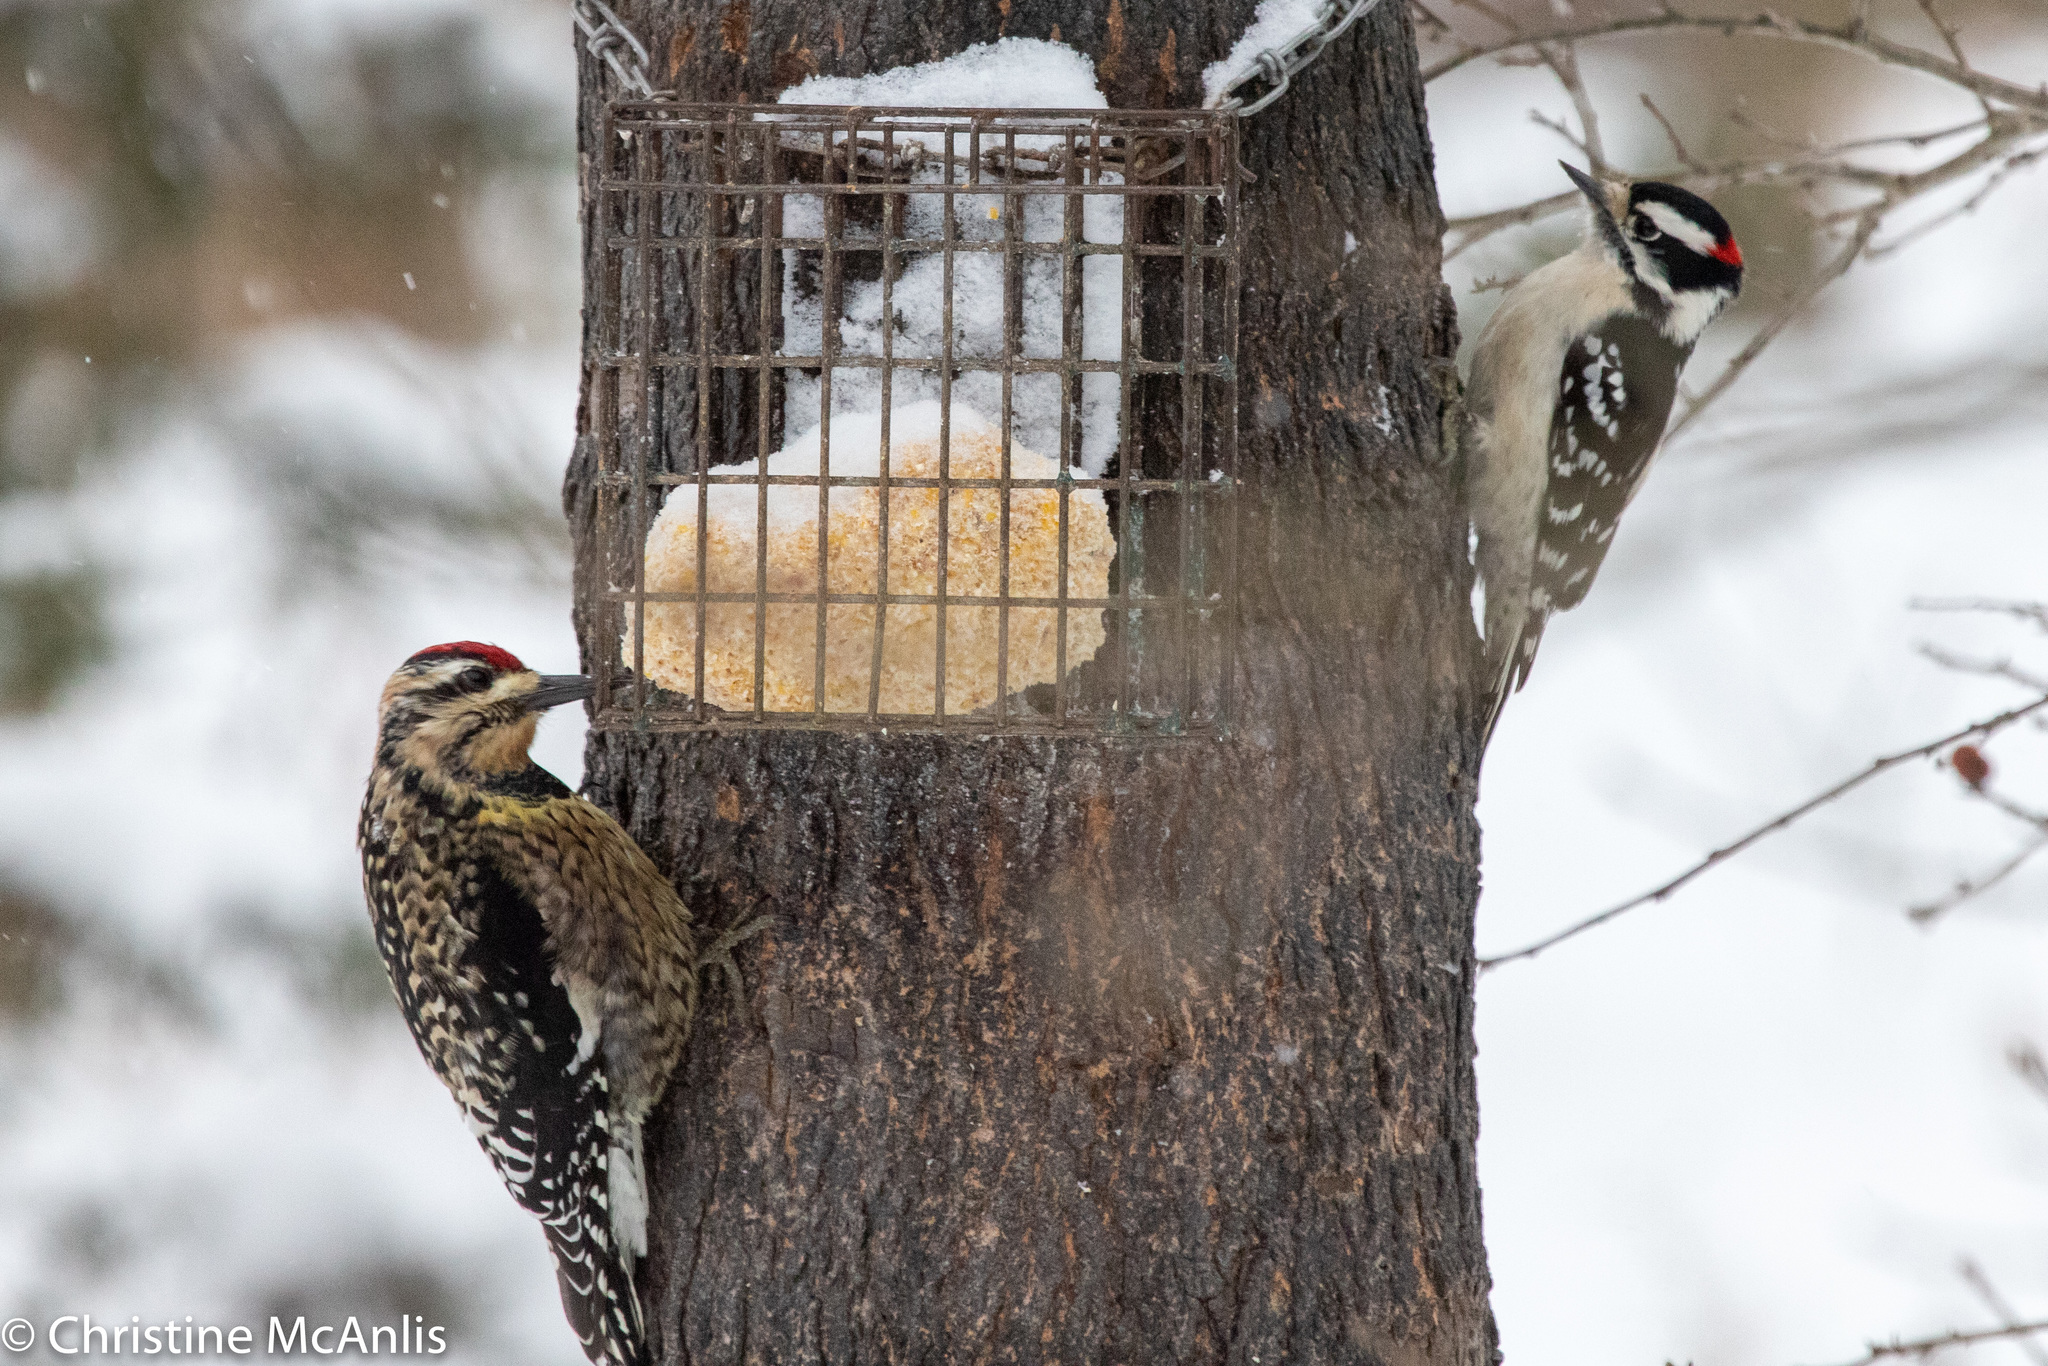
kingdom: Animalia
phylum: Chordata
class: Aves
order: Piciformes
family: Picidae
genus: Sphyrapicus
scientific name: Sphyrapicus varius
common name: Yellow-bellied sapsucker
